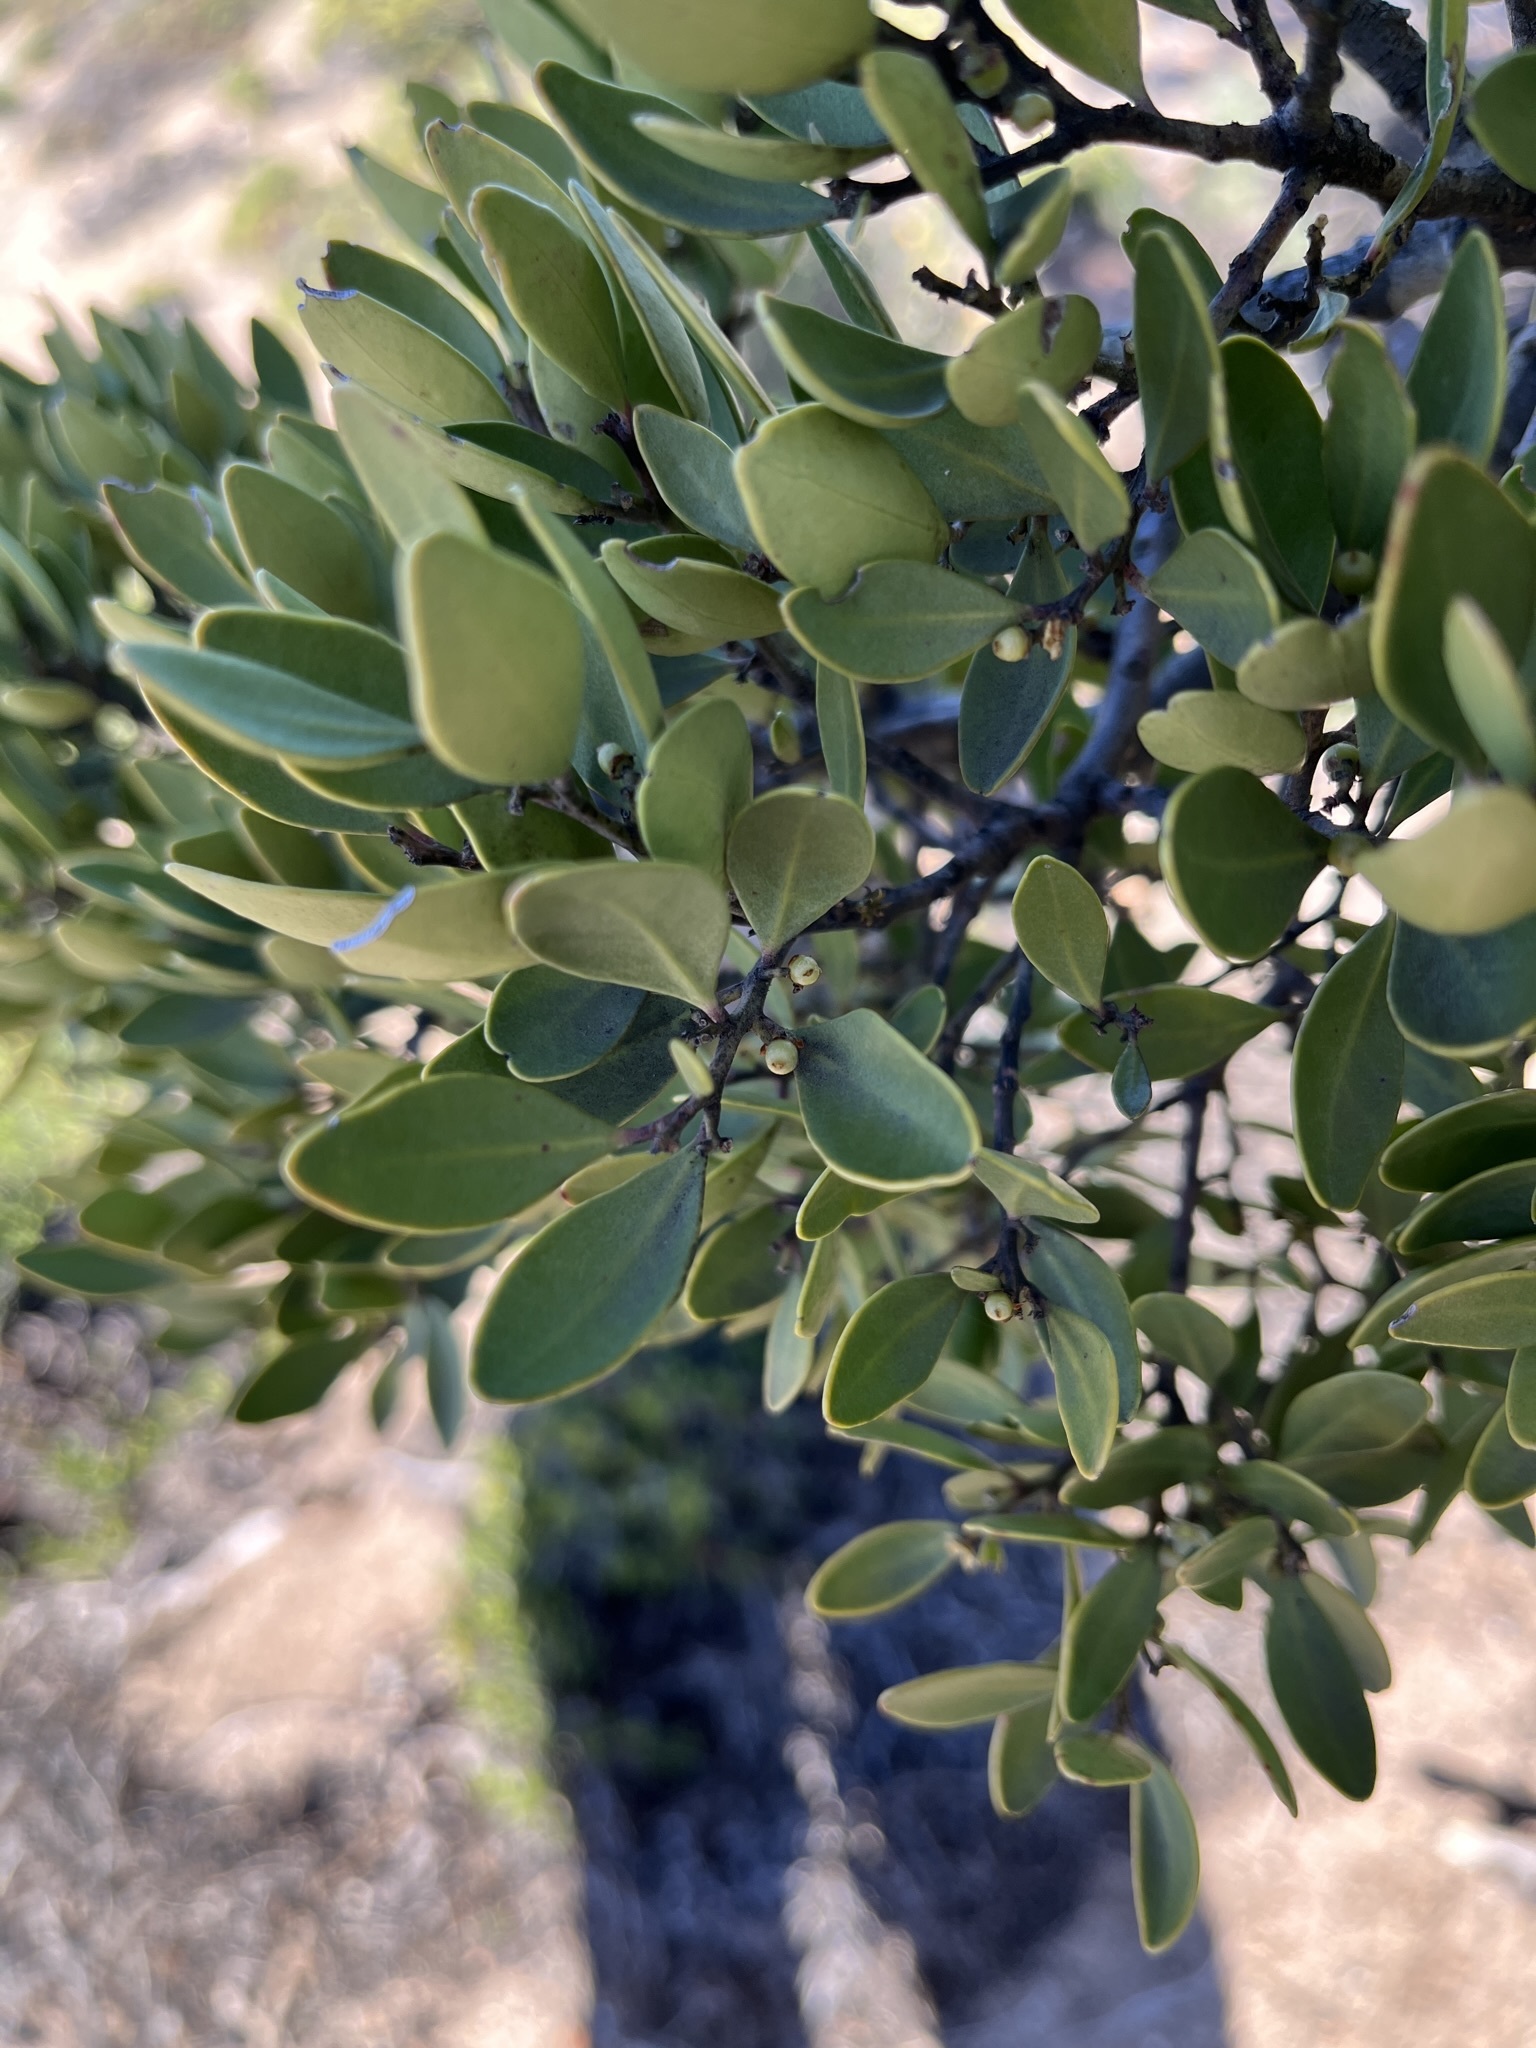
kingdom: Plantae
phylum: Tracheophyta
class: Magnoliopsida
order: Celastrales
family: Celastraceae
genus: Gymnosporia
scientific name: Gymnosporia laurina
